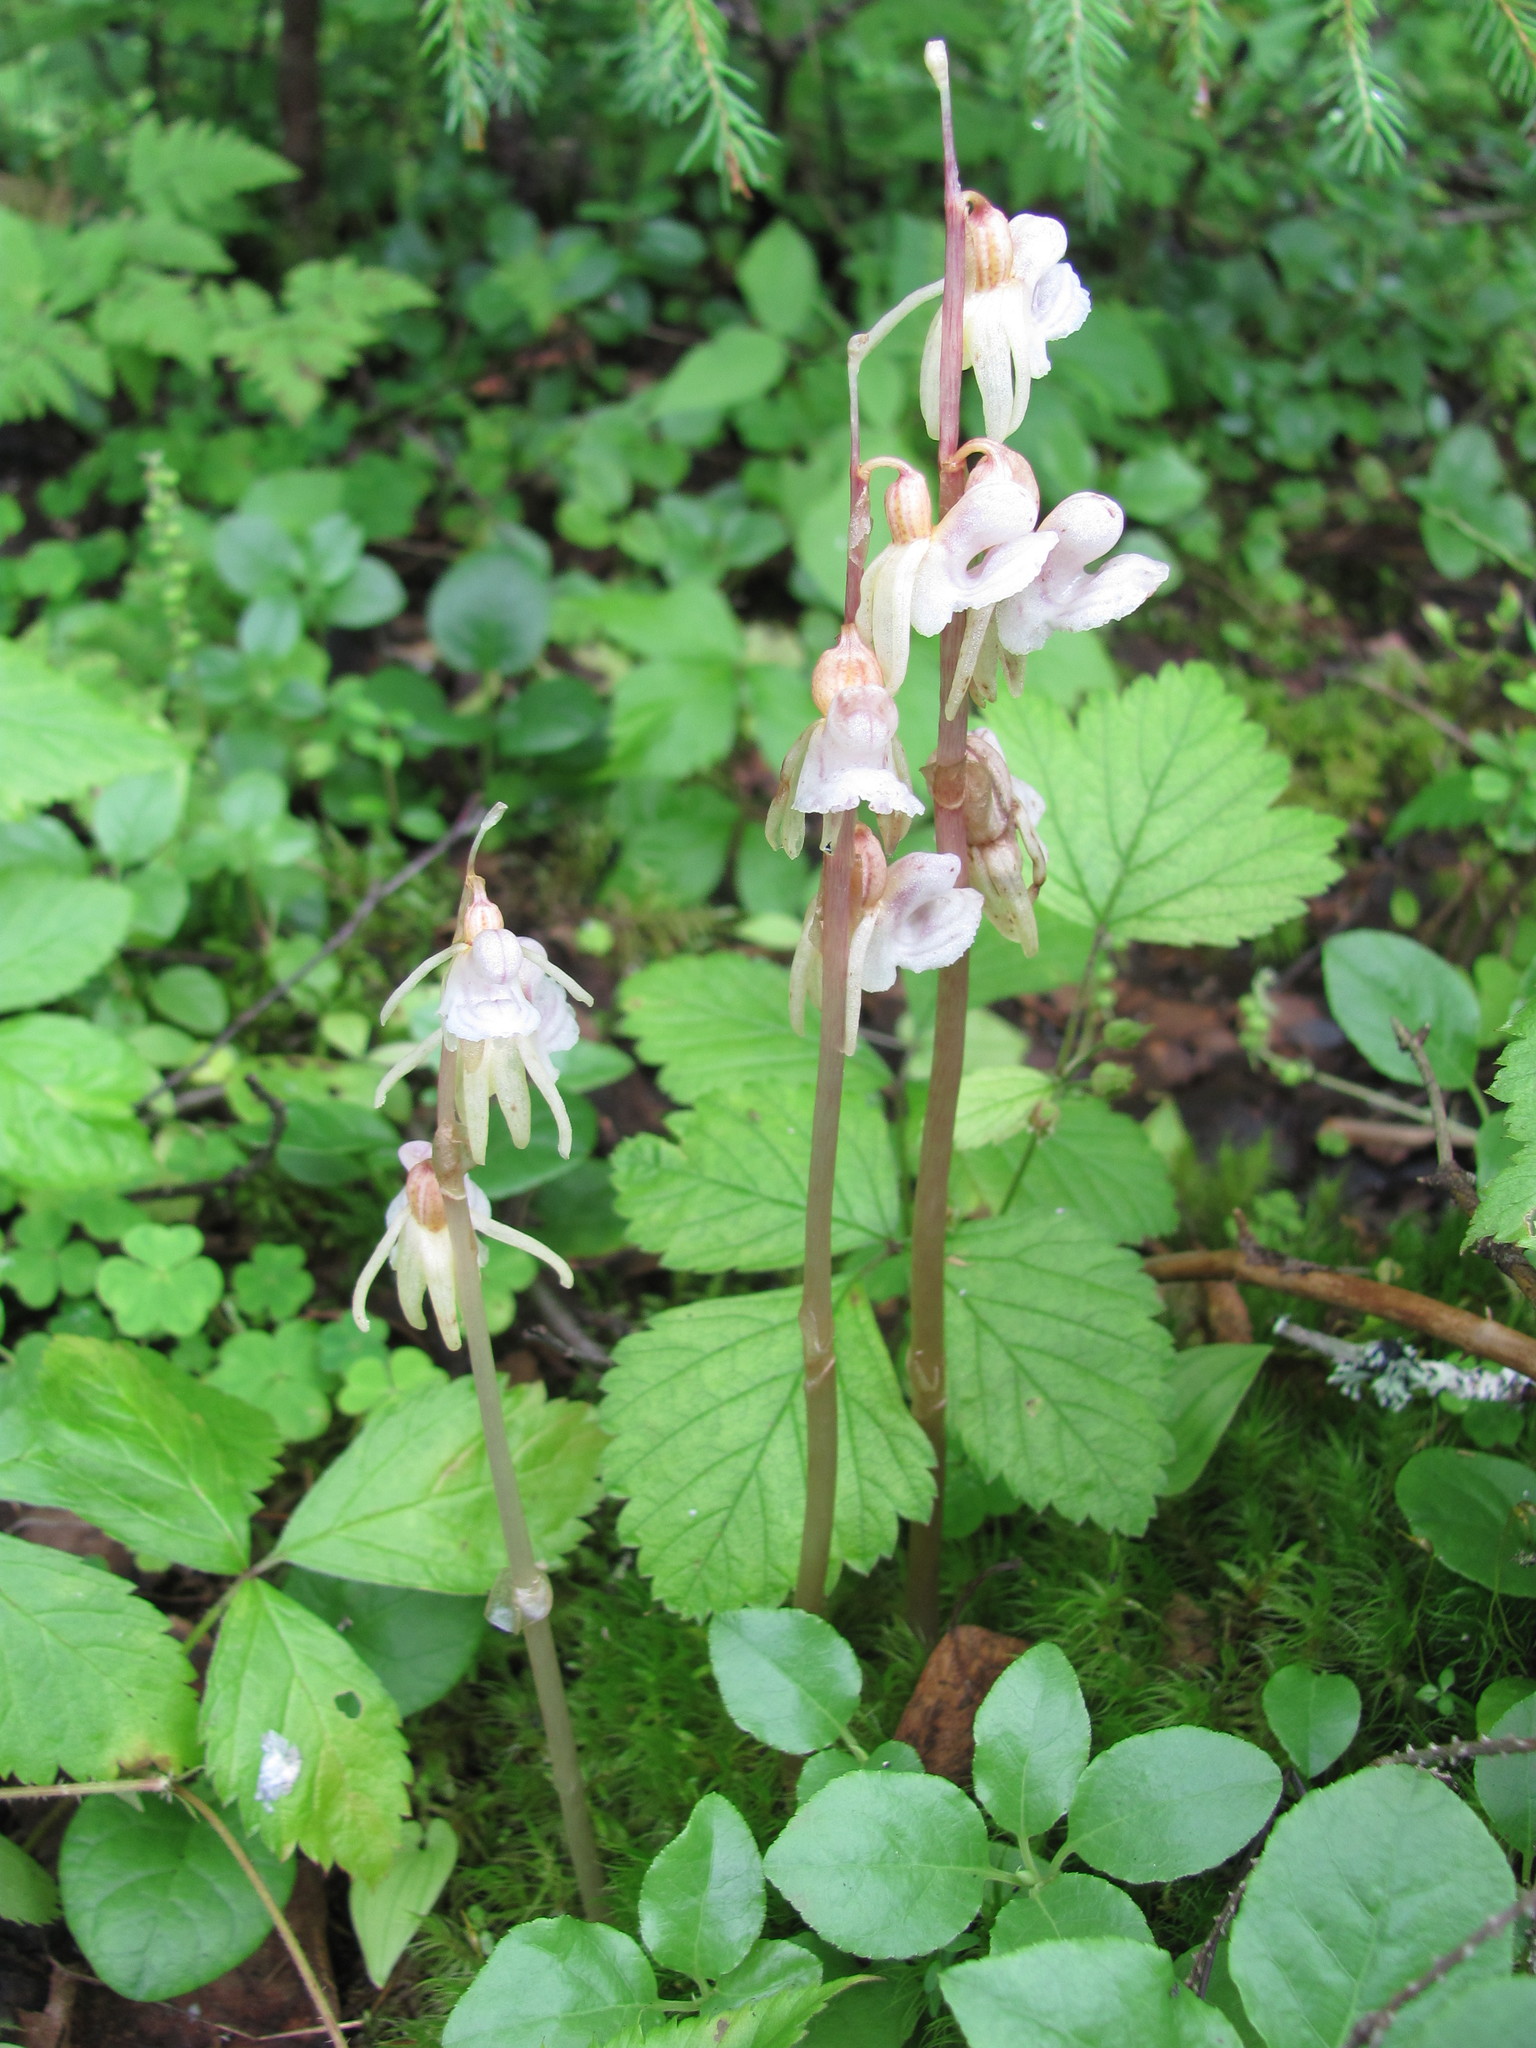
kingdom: Plantae
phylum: Tracheophyta
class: Liliopsida
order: Asparagales
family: Orchidaceae
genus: Epipogium
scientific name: Epipogium aphyllum
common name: Ghost orchid
